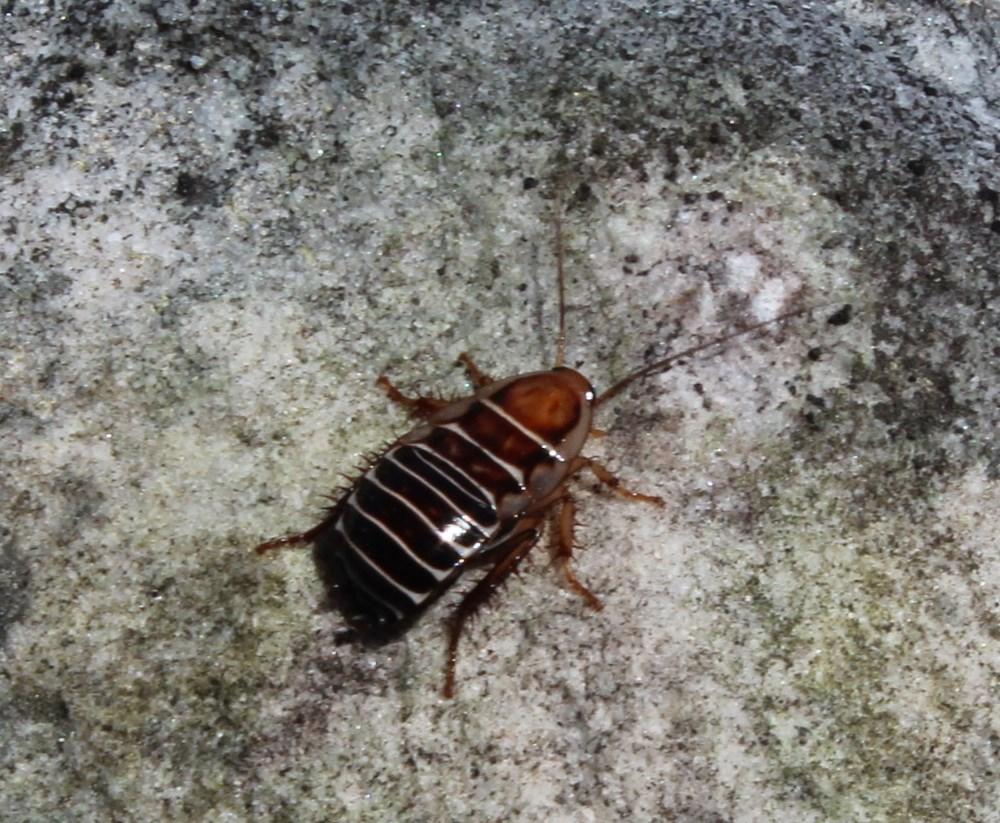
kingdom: Animalia
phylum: Arthropoda
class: Insecta
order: Blattodea
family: Ectobiidae
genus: Temnopteryx
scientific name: Temnopteryx phalerata
